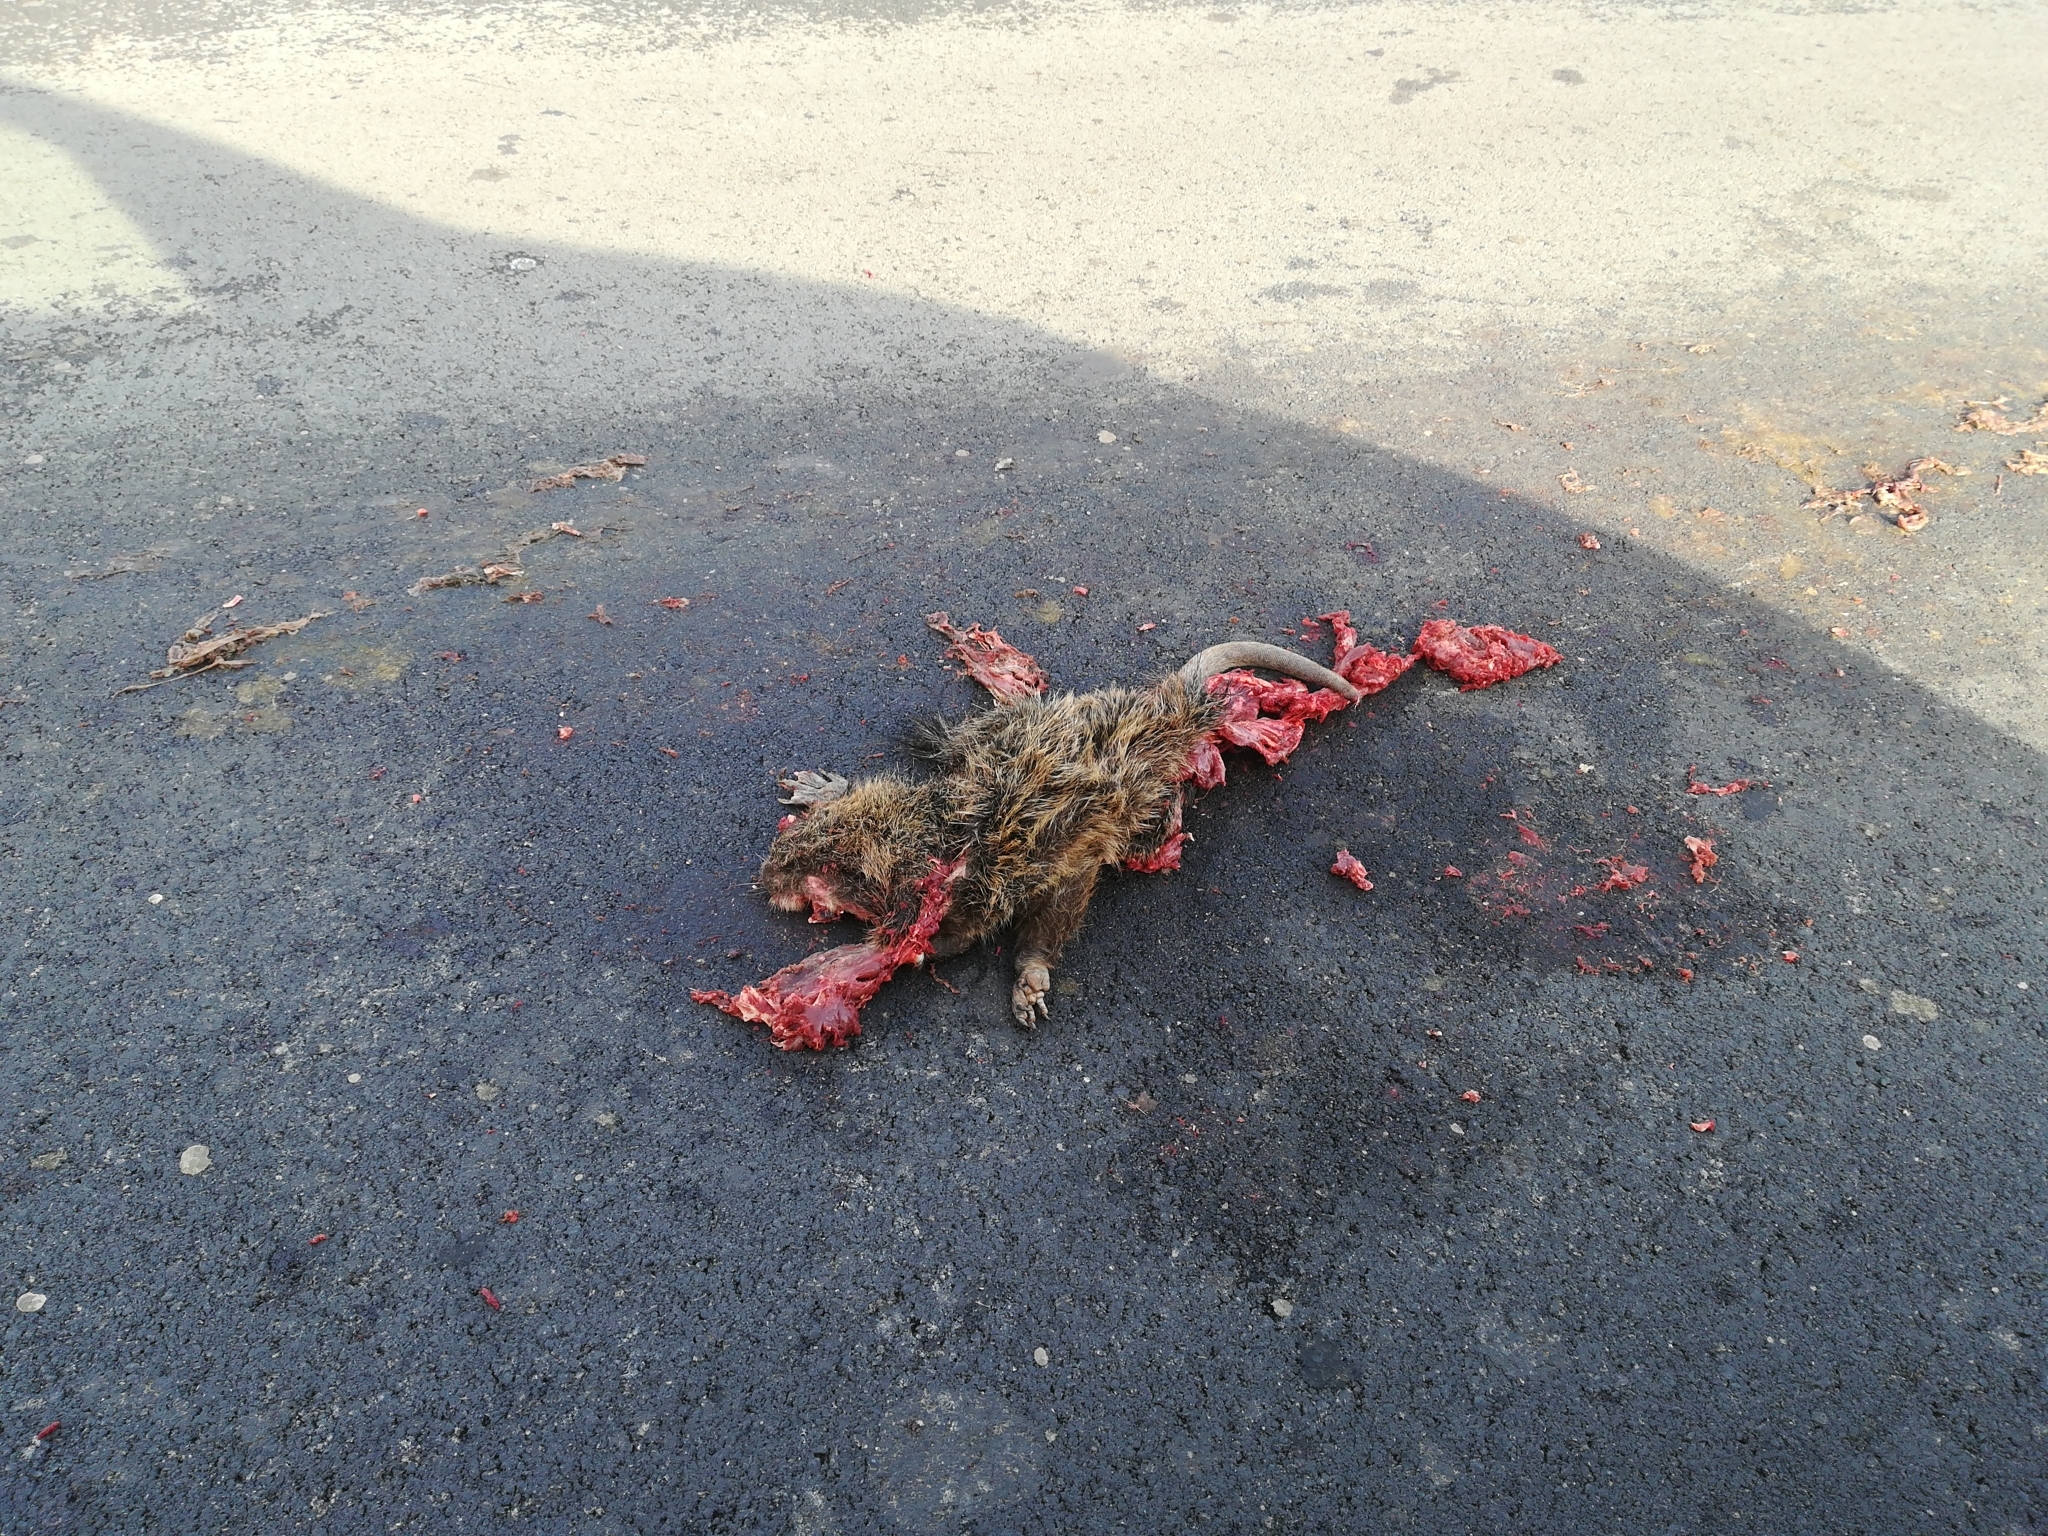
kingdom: Animalia
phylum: Chordata
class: Mammalia
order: Rodentia
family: Myocastoridae
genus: Myocastor
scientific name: Myocastor coypus
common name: Coypu
